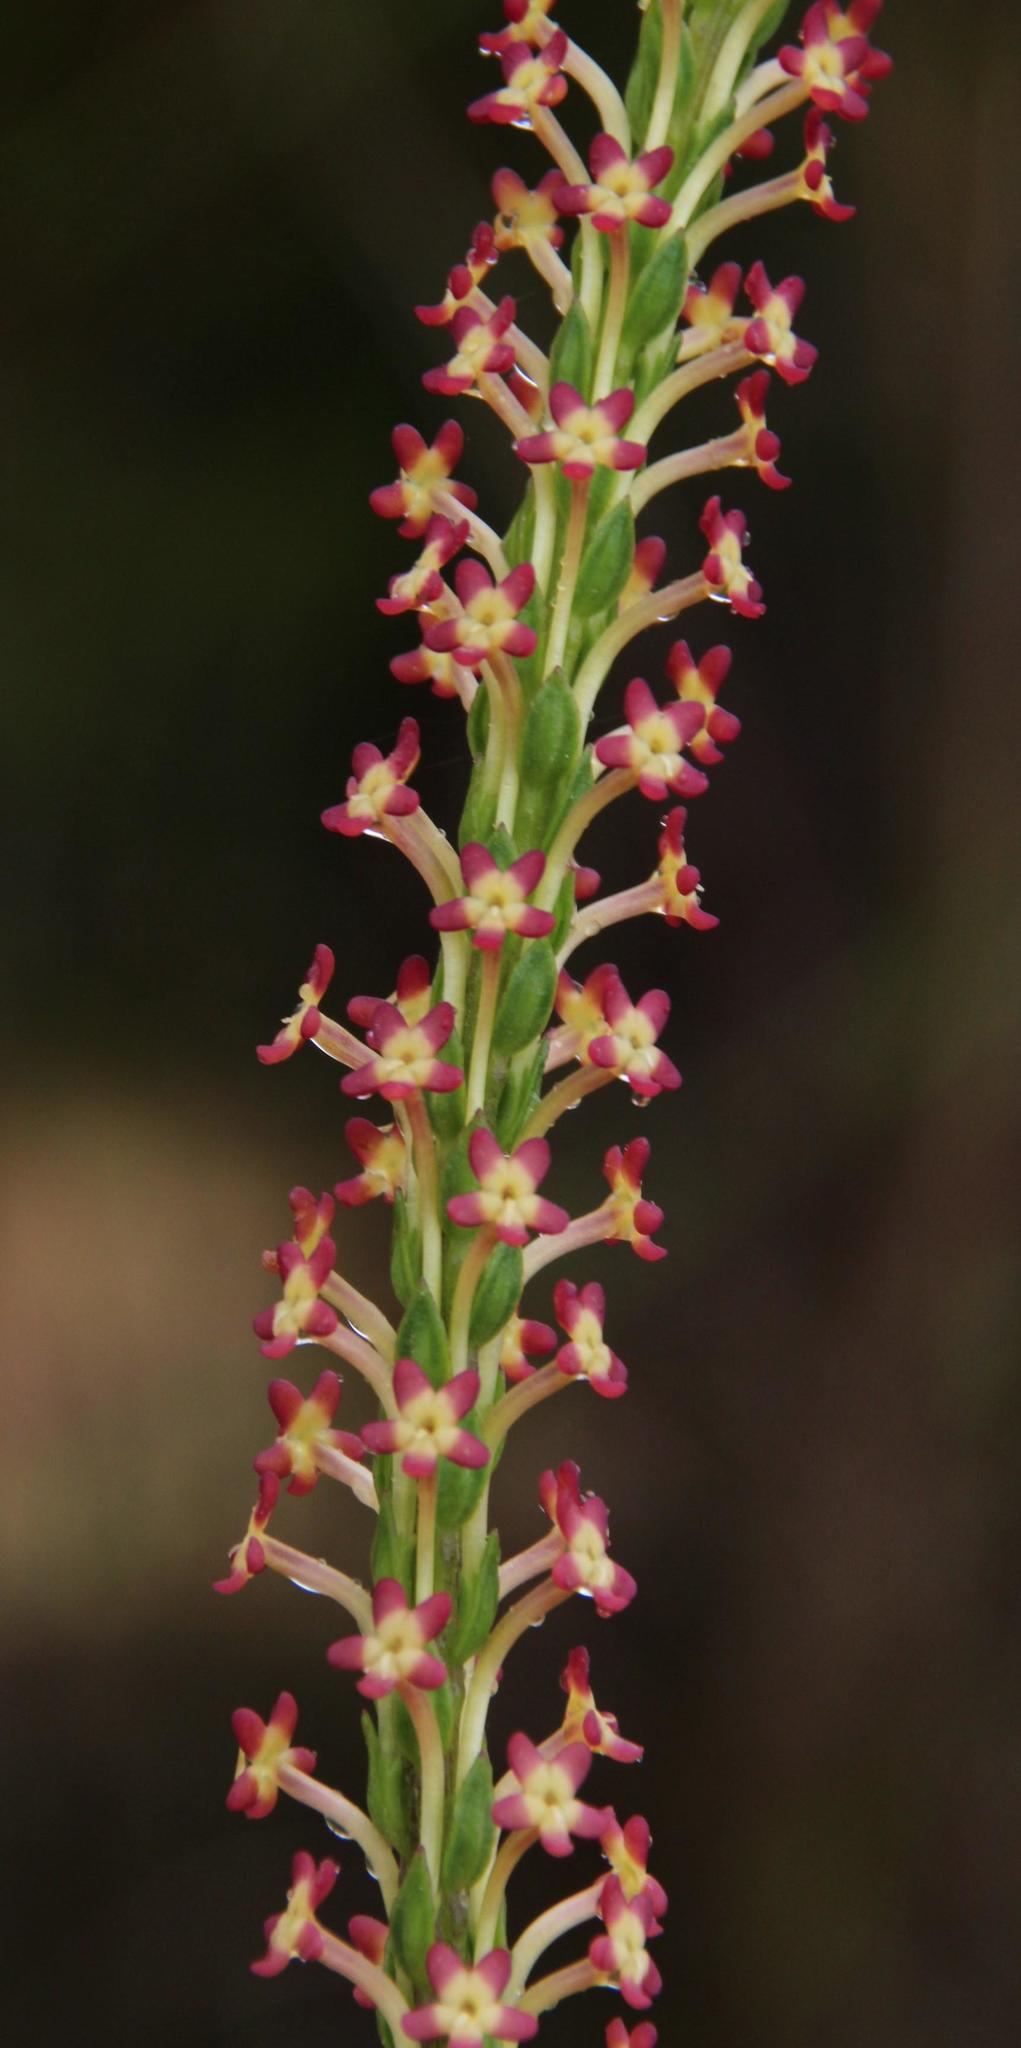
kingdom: Plantae
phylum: Tracheophyta
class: Magnoliopsida
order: Lamiales
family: Scrophulariaceae
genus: Microdon
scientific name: Microdon dubius
